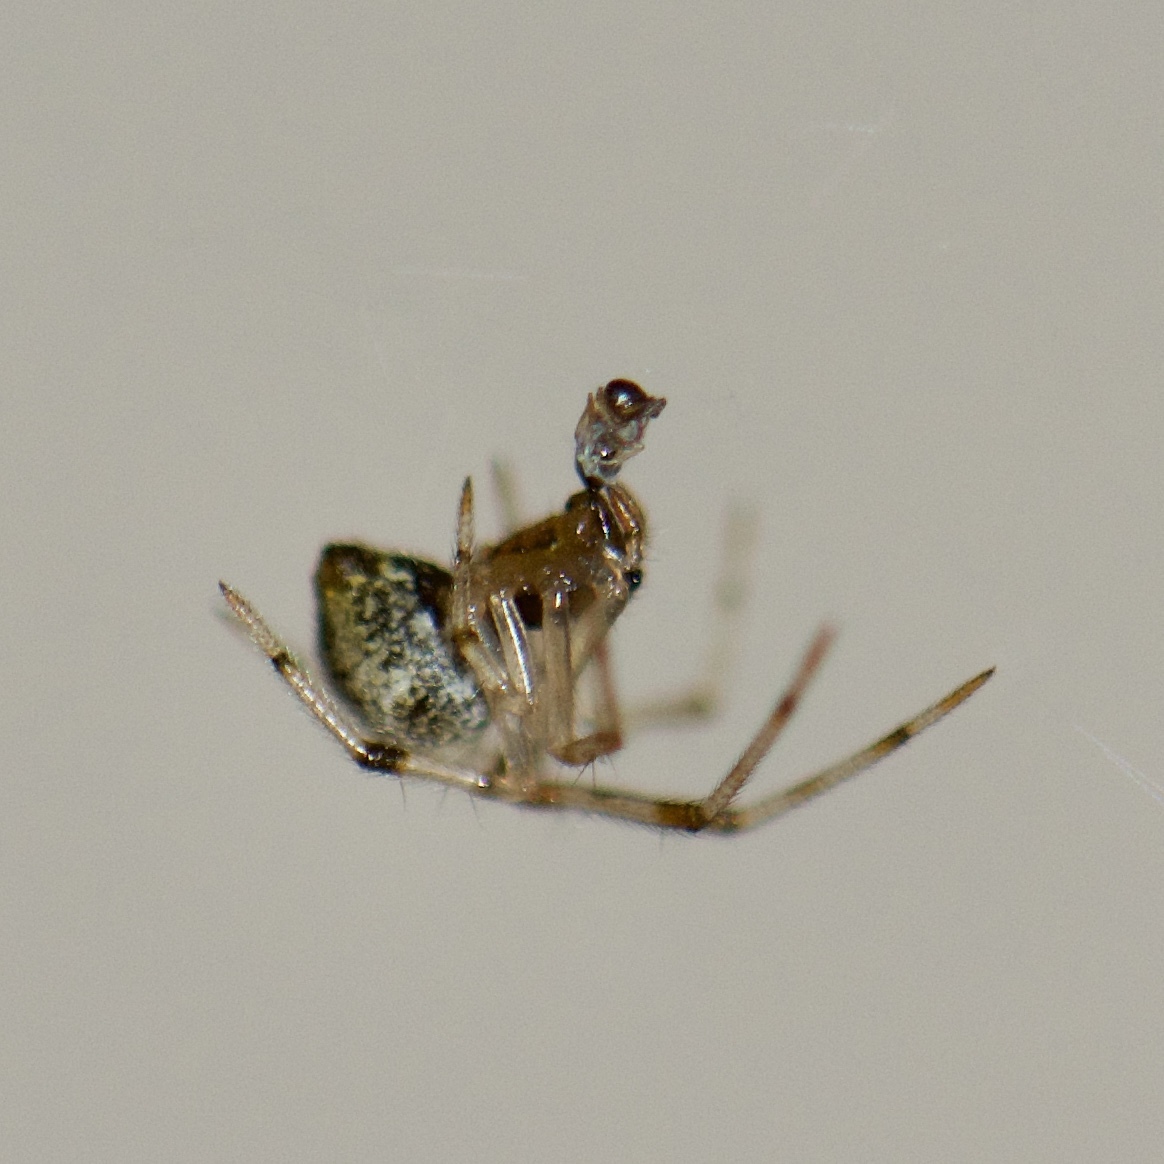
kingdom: Animalia
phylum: Arthropoda
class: Arachnida
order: Araneae
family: Theridiidae
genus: Parasteatoda
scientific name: Parasteatoda tepidariorum
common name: Common house spider
